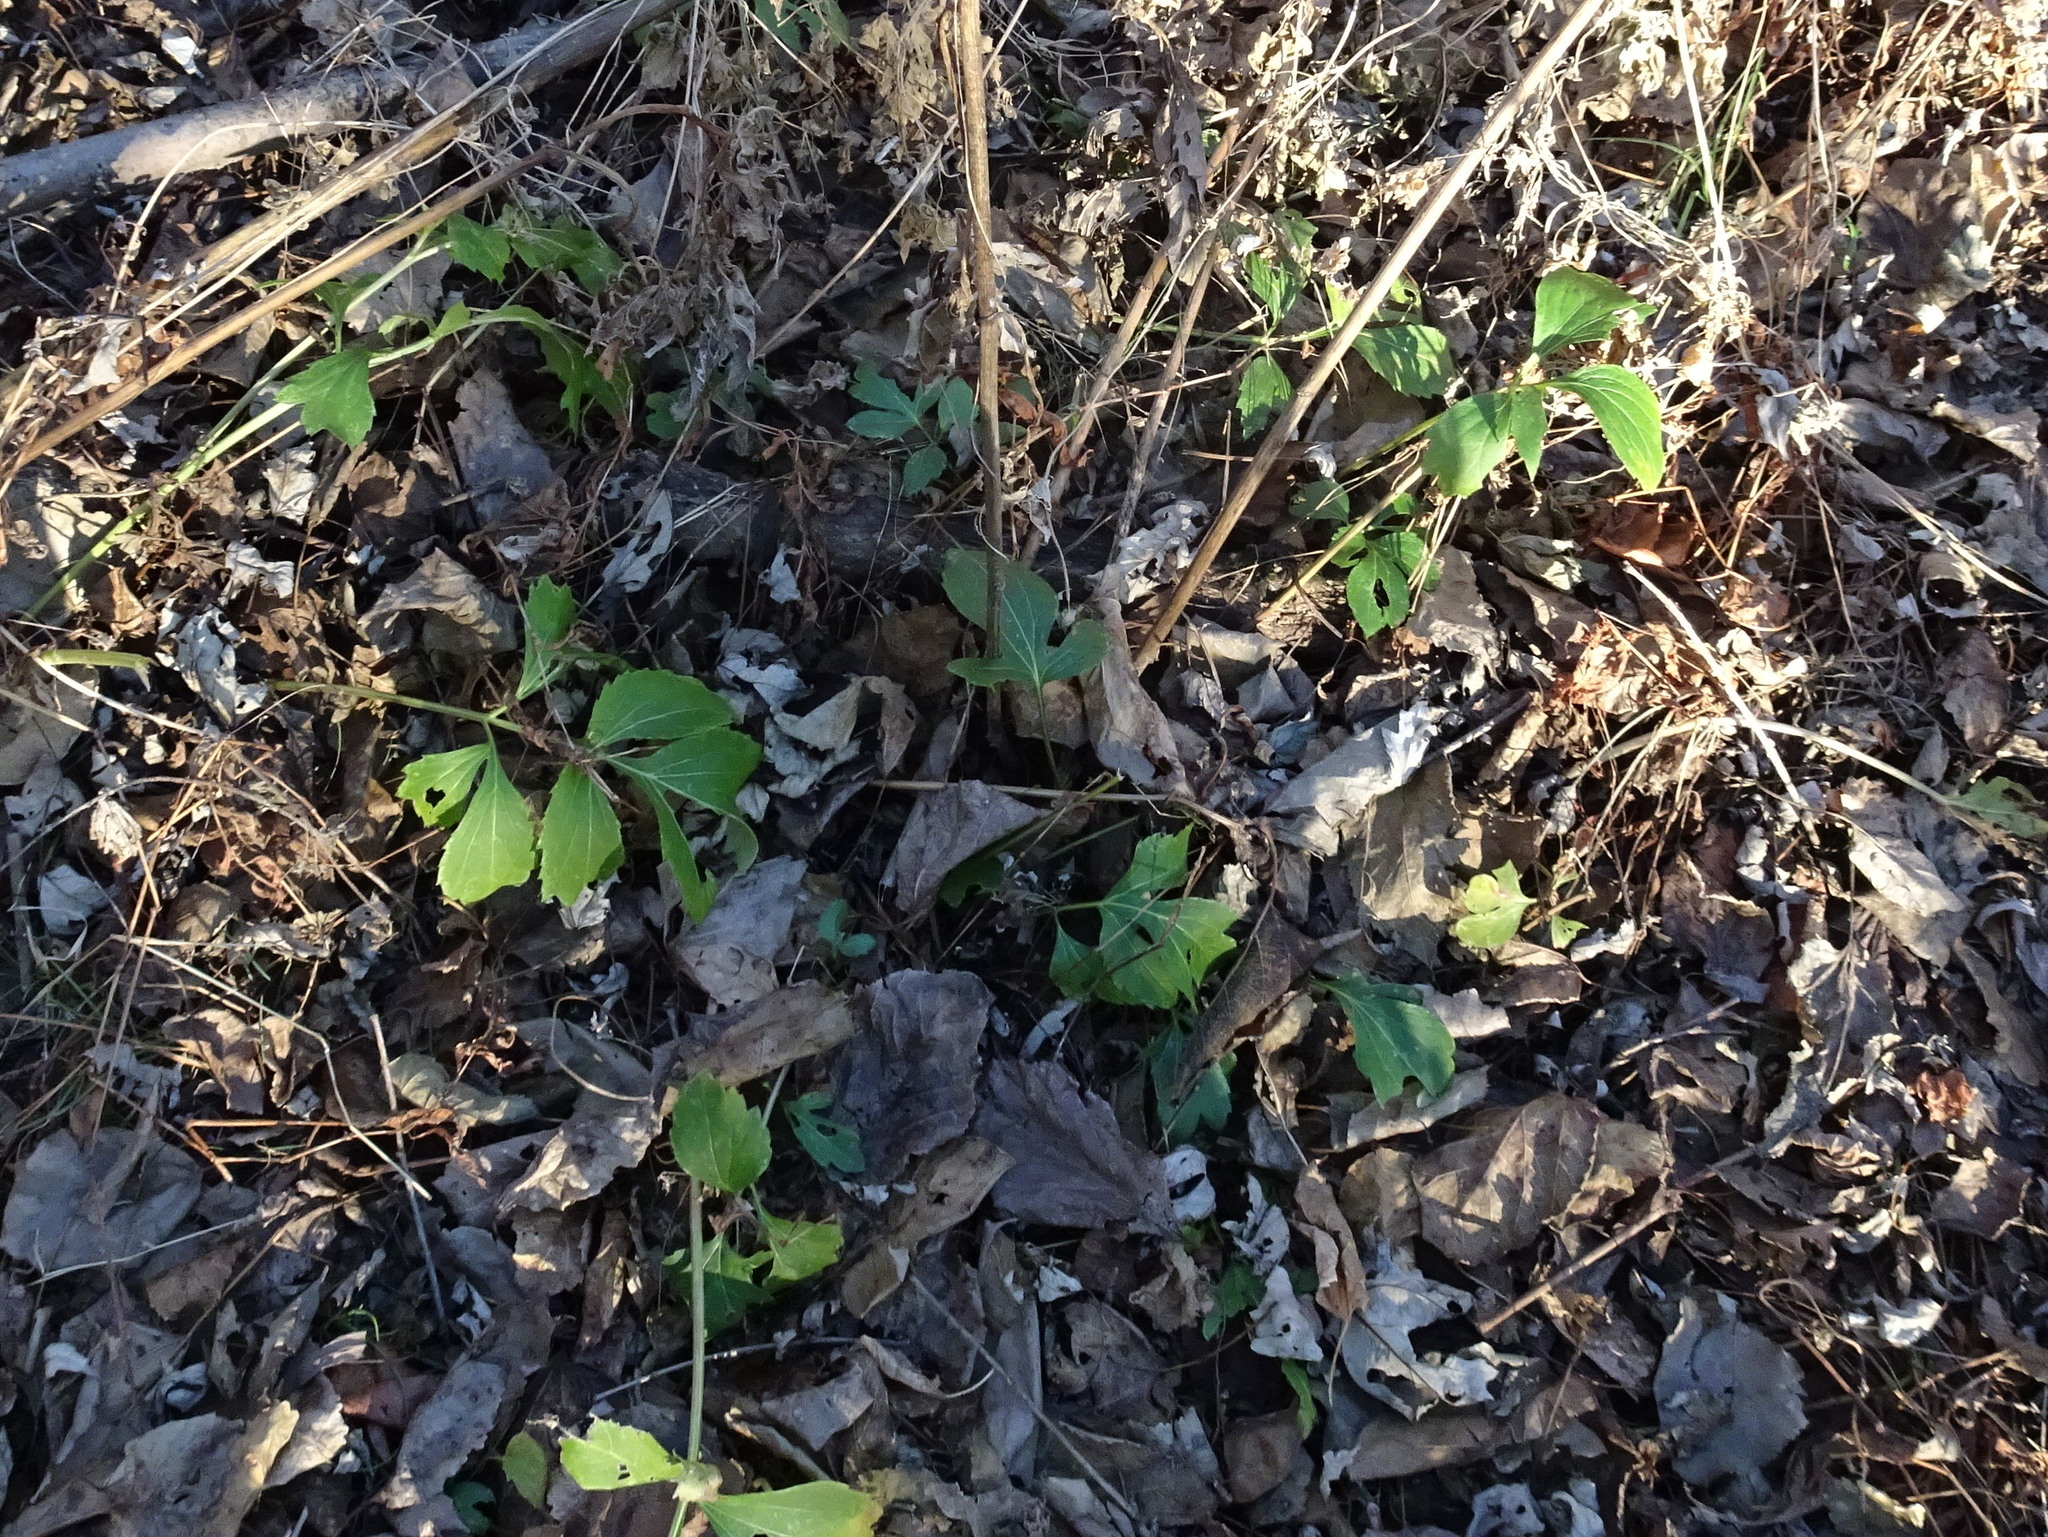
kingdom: Plantae
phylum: Tracheophyta
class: Magnoliopsida
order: Asterales
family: Asteraceae
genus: Rudbeckia
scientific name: Rudbeckia laciniata
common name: Coneflower
